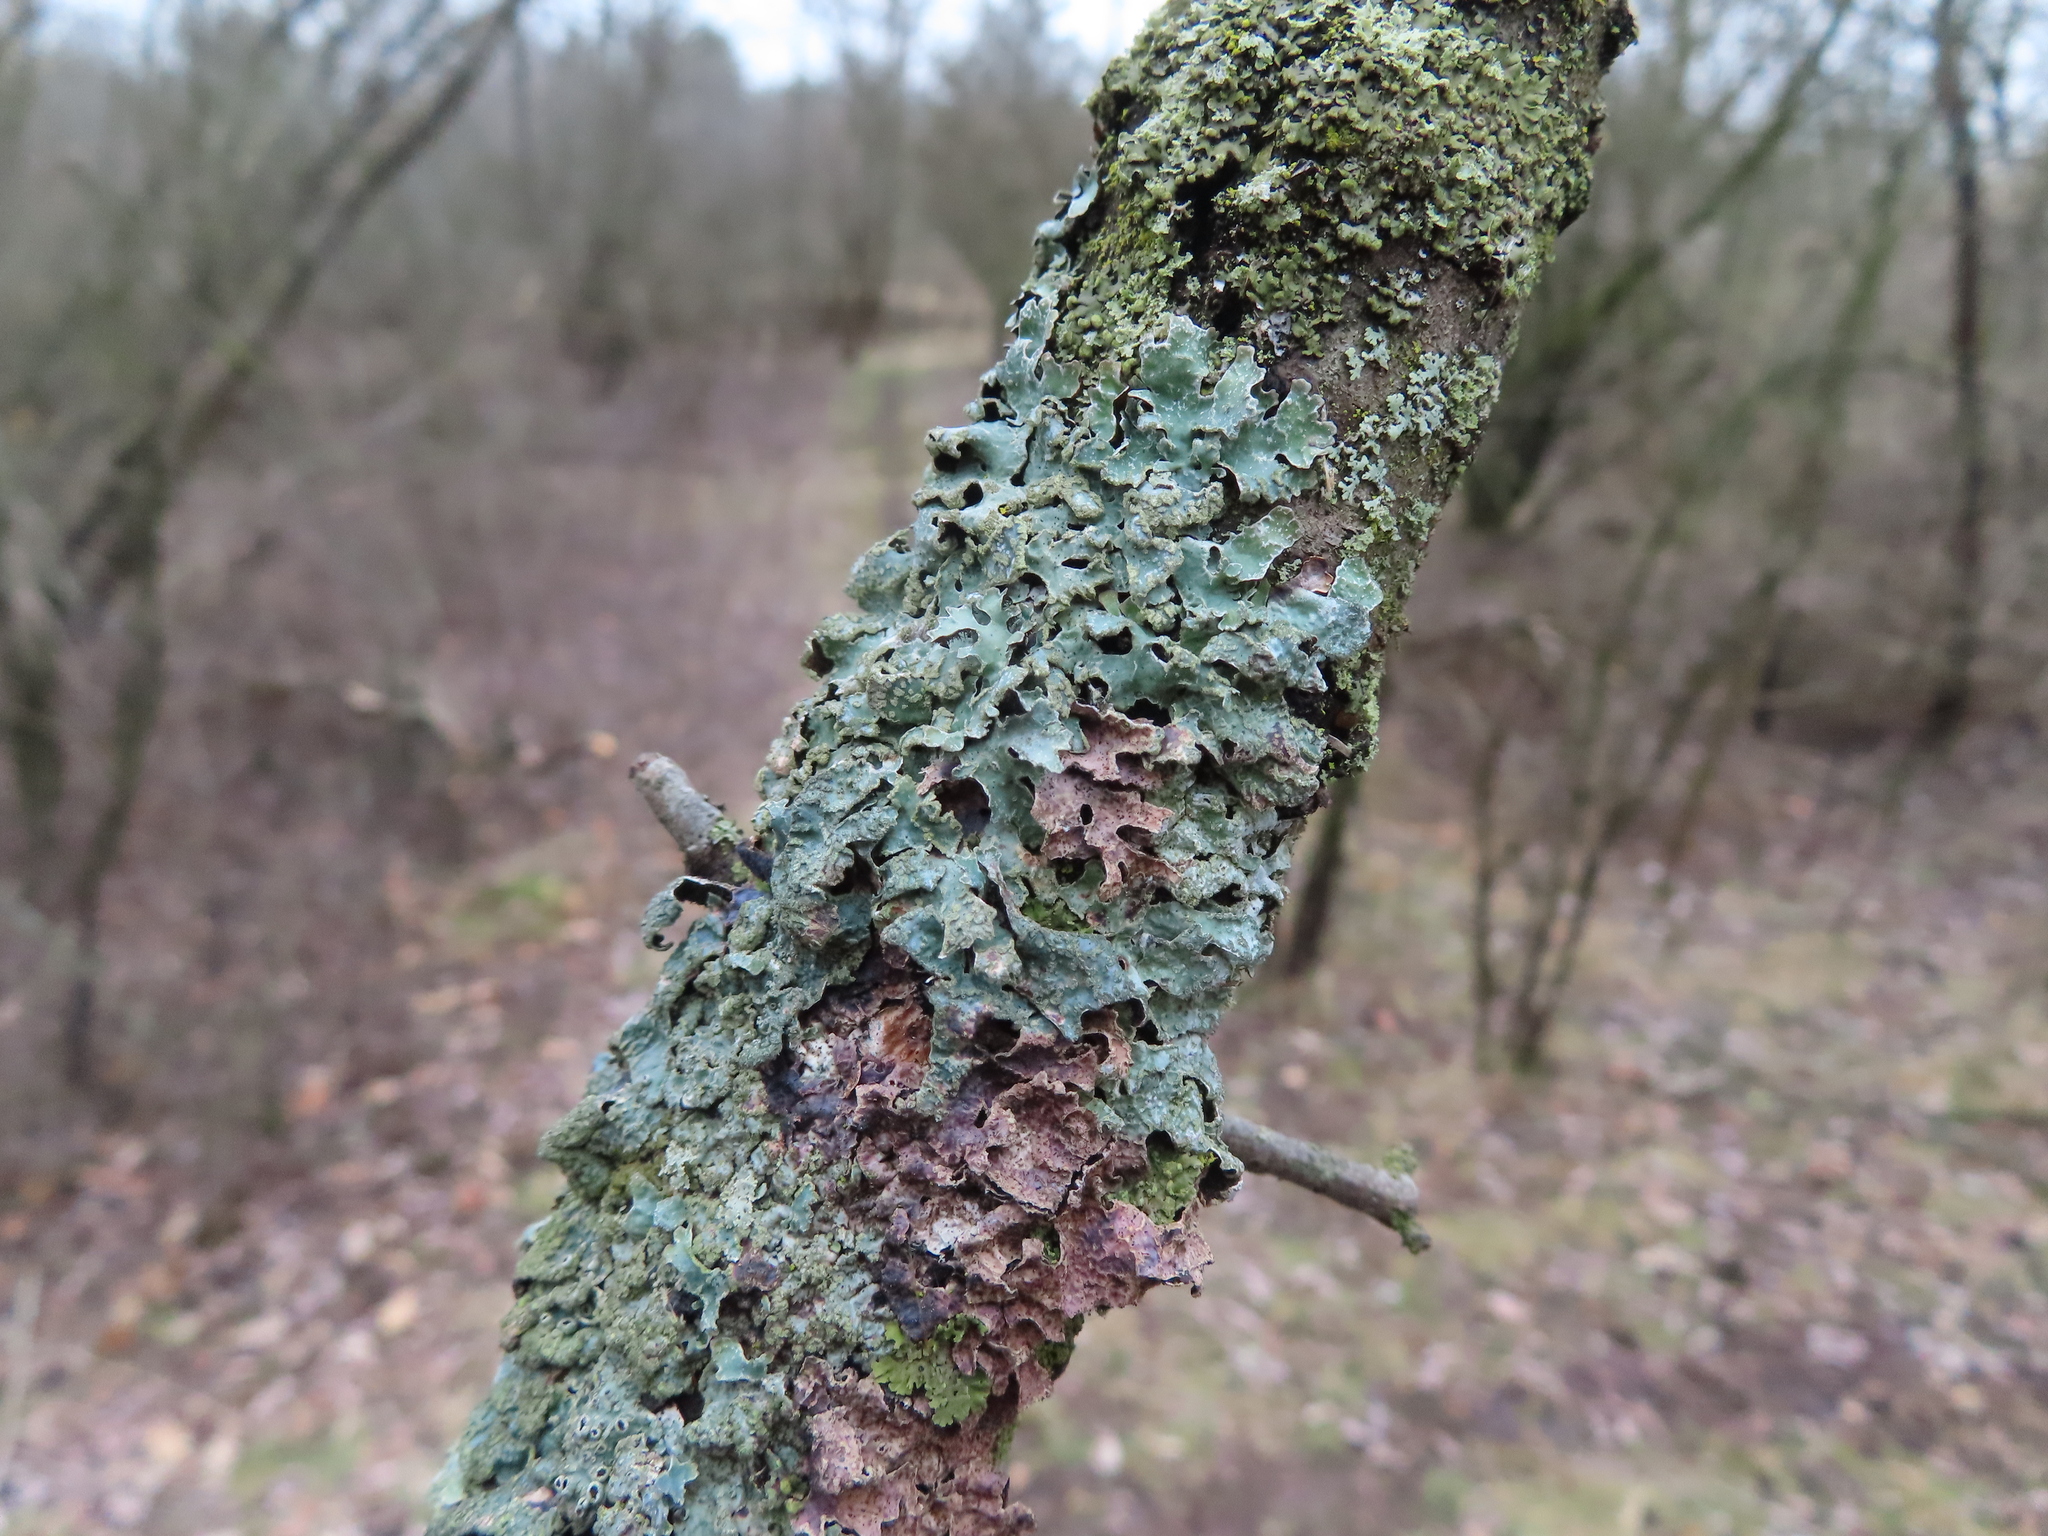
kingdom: Fungi
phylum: Ascomycota
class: Lecanoromycetes
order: Lecanorales
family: Parmeliaceae
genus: Parmelia
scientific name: Parmelia sulcata
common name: Netted shield lichen
